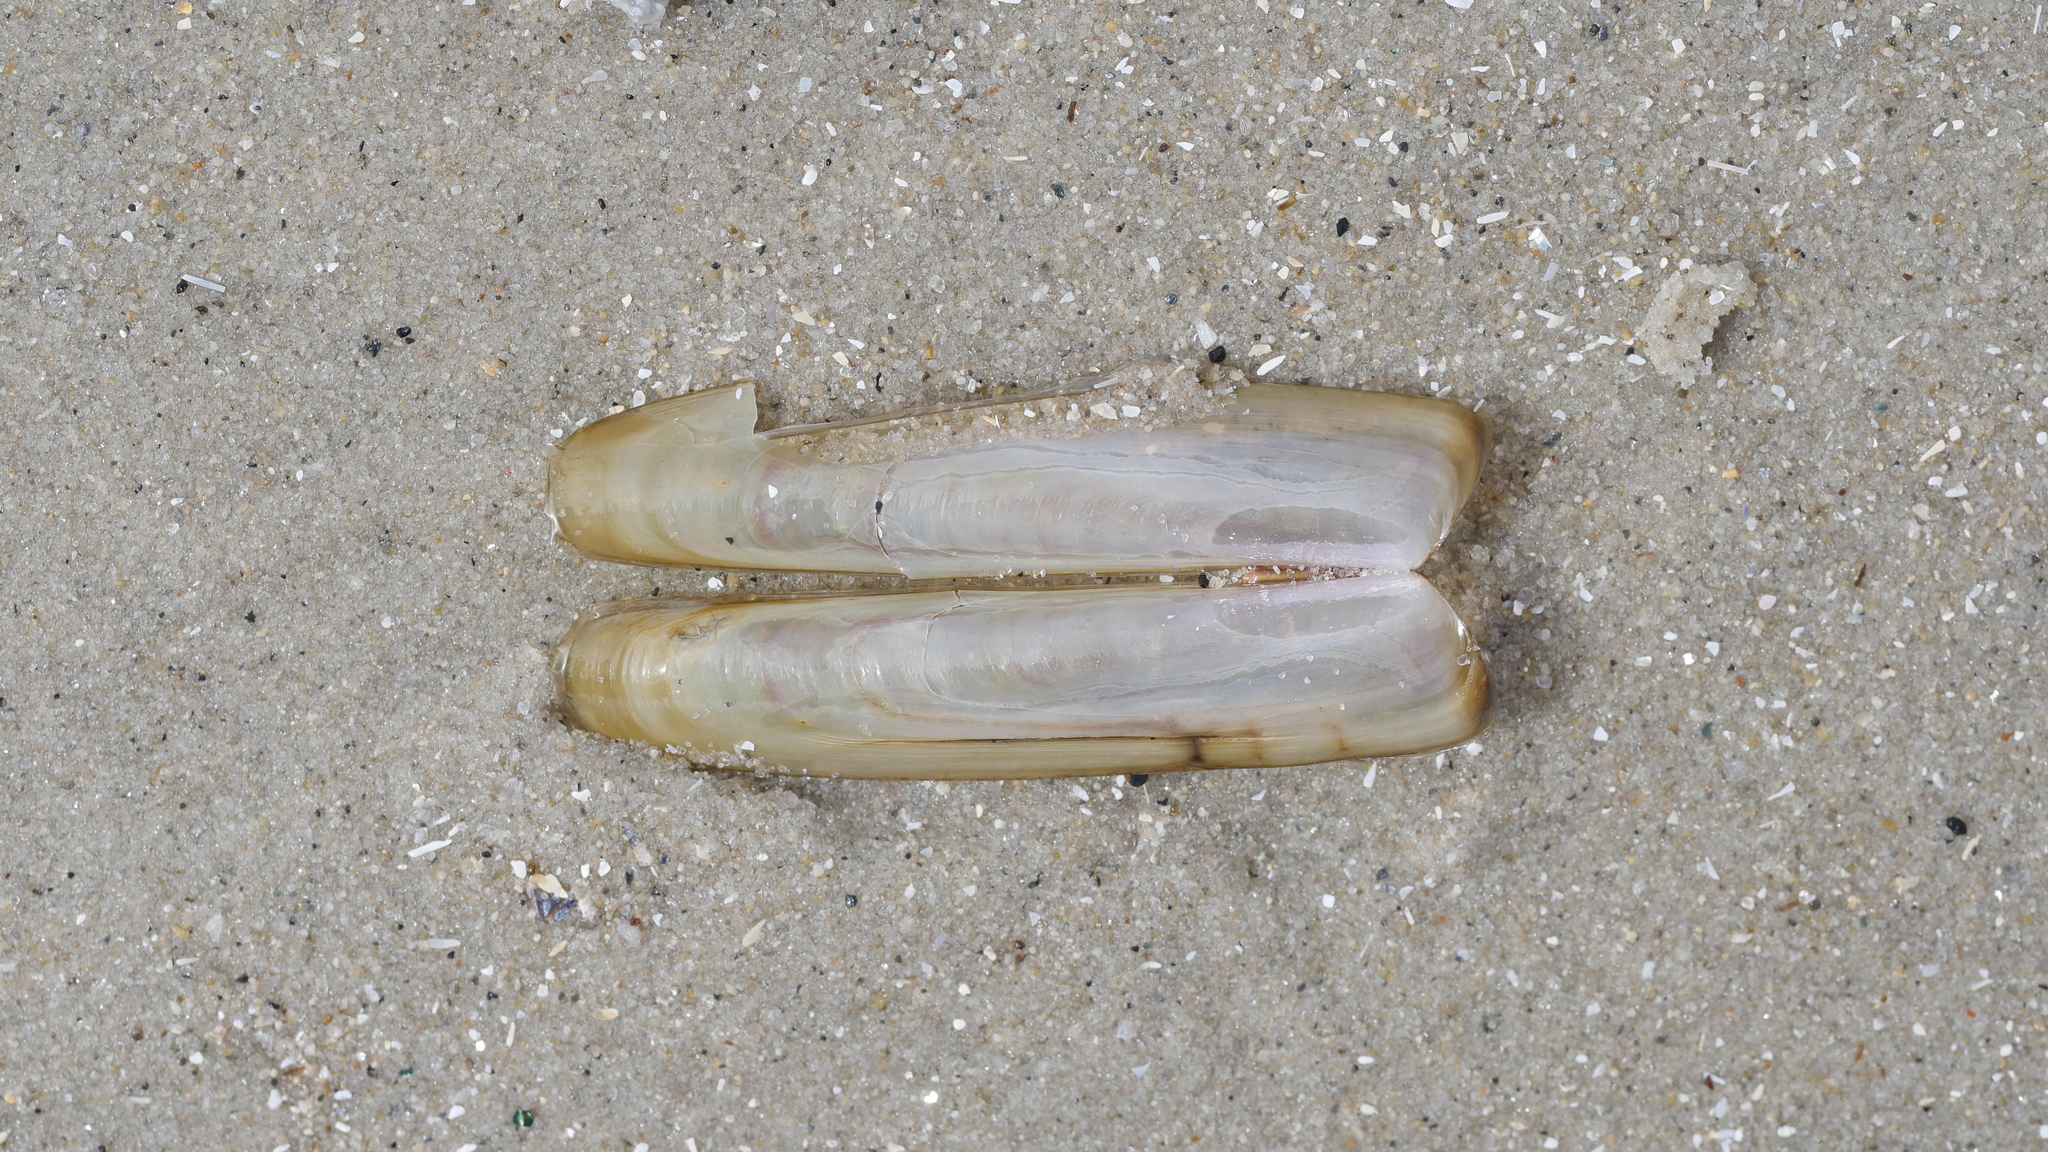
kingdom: Animalia
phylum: Mollusca
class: Bivalvia
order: Adapedonta
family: Solenidae
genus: Solen
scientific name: Solen viridis
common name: Green jackknife
